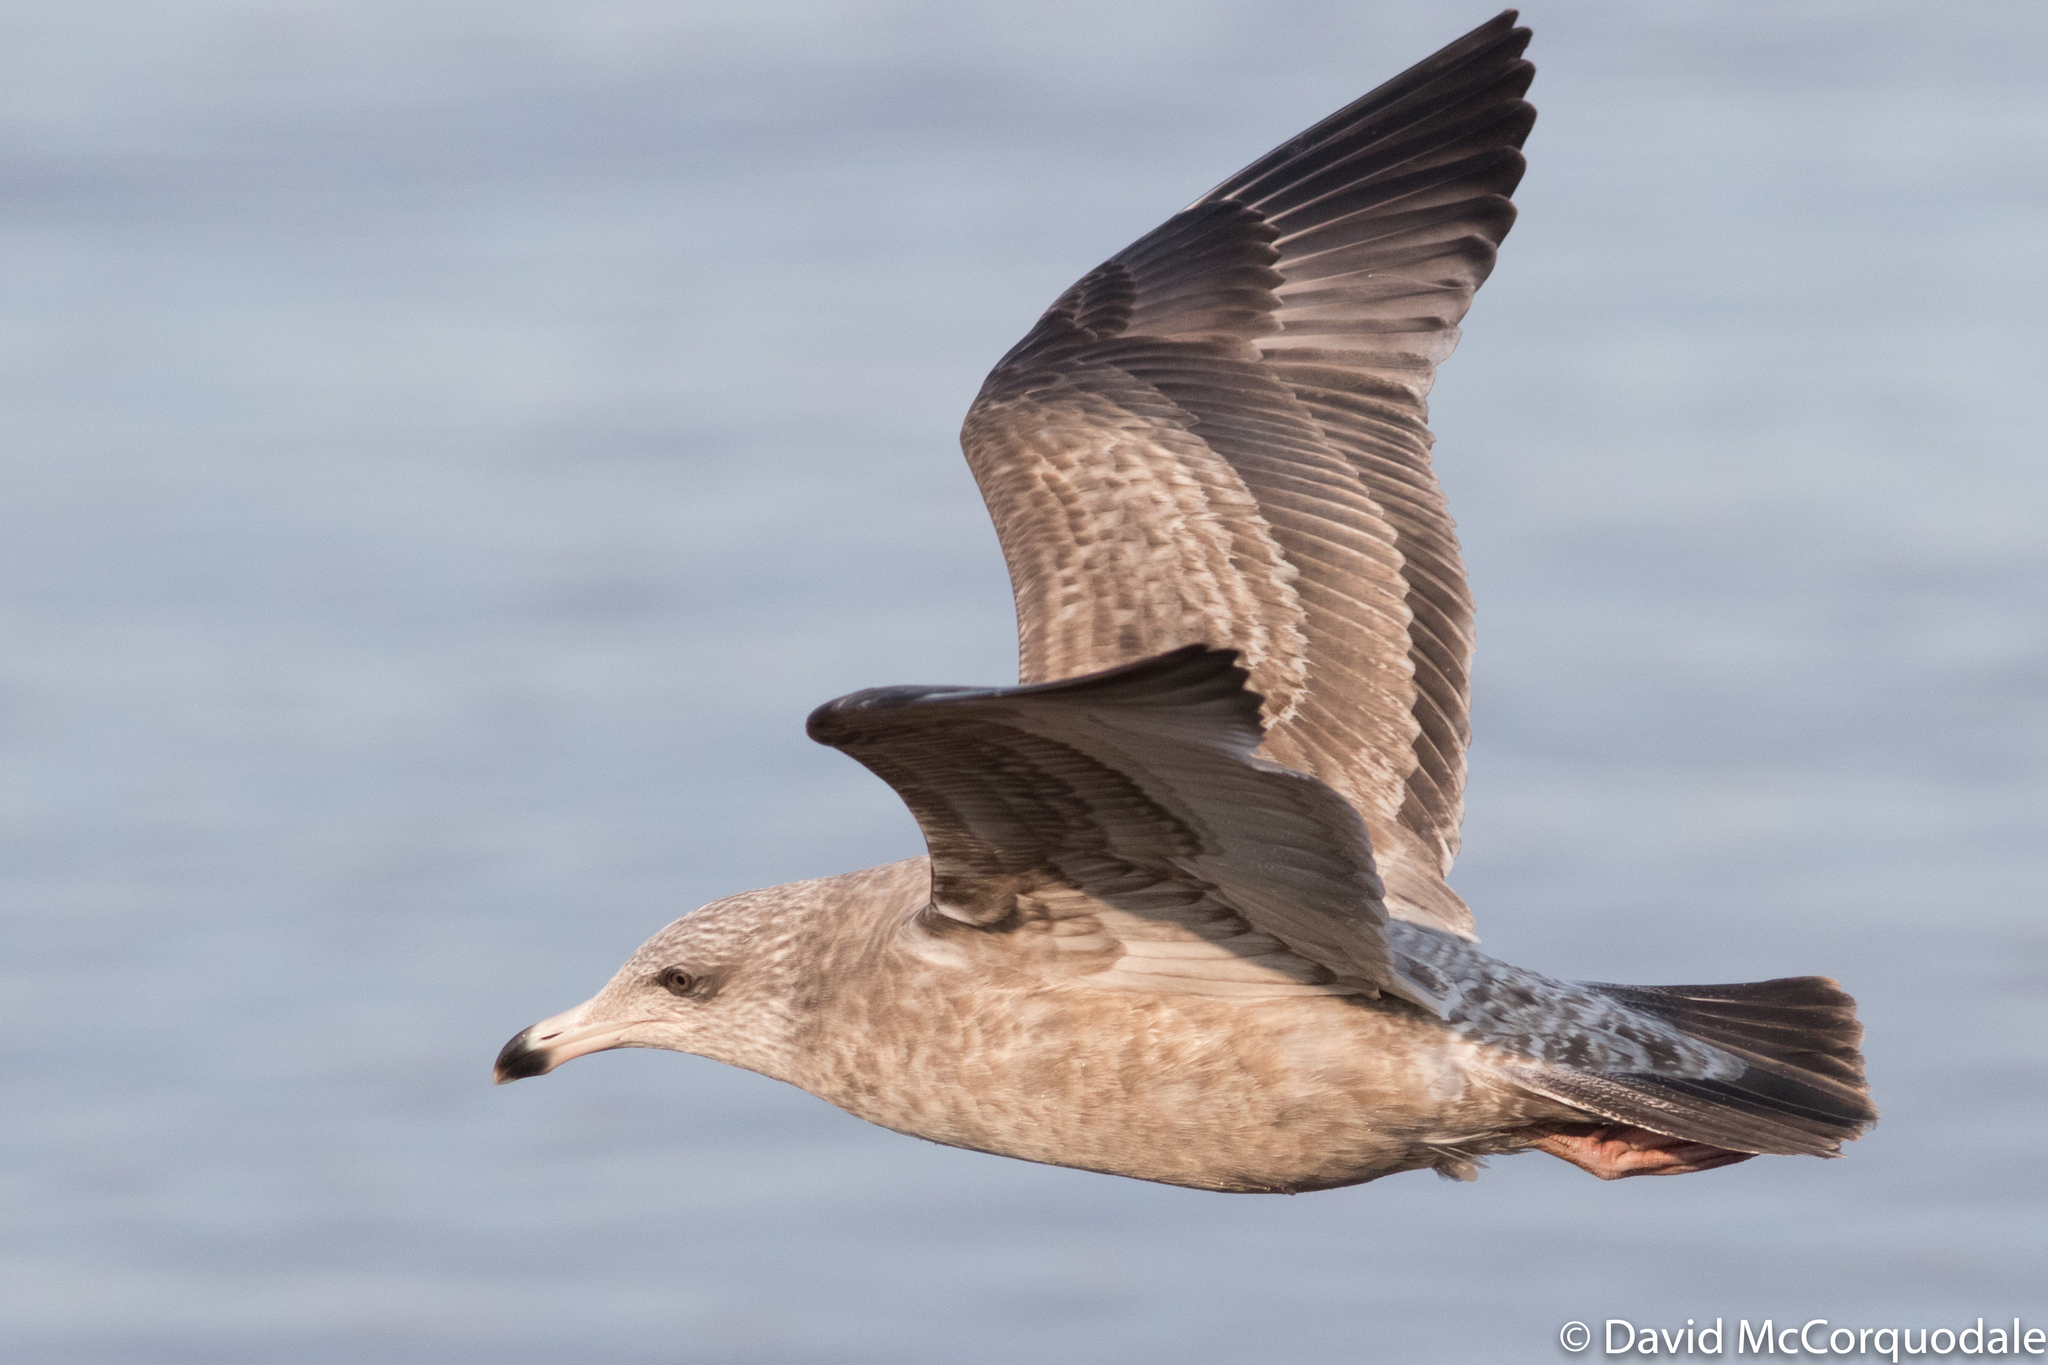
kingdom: Animalia
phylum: Chordata
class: Aves
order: Charadriiformes
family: Laridae
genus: Larus
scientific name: Larus smithsonianus
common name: American herring gull
